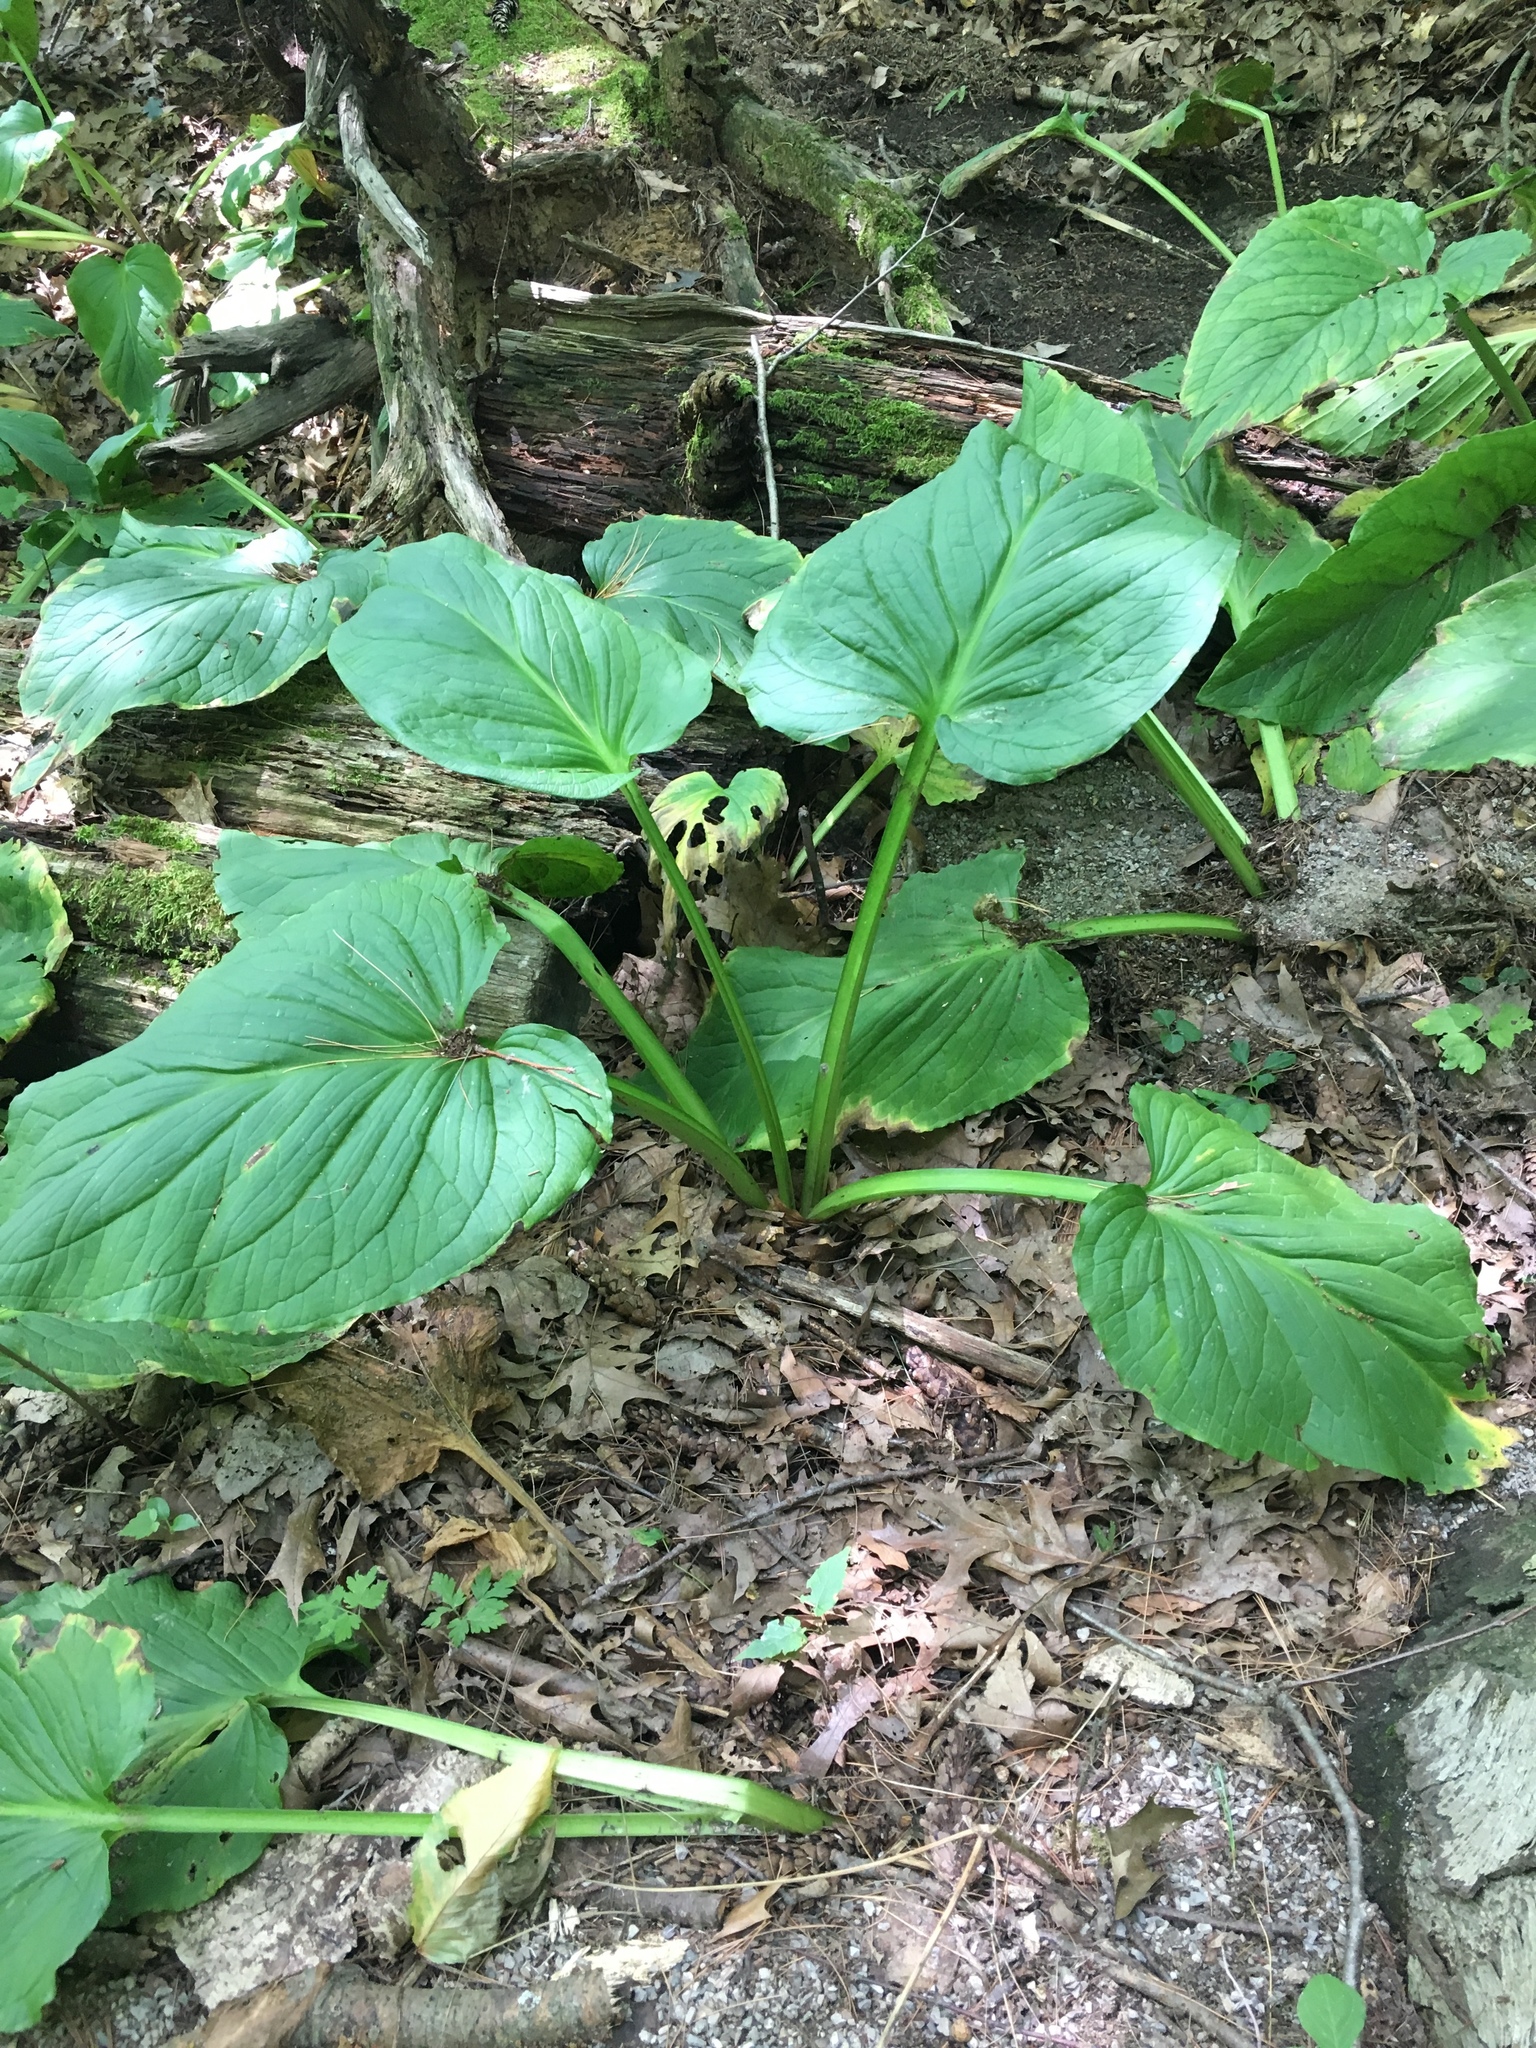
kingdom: Plantae
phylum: Tracheophyta
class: Liliopsida
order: Alismatales
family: Araceae
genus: Symplocarpus
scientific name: Symplocarpus foetidus
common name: Eastern skunk cabbage
